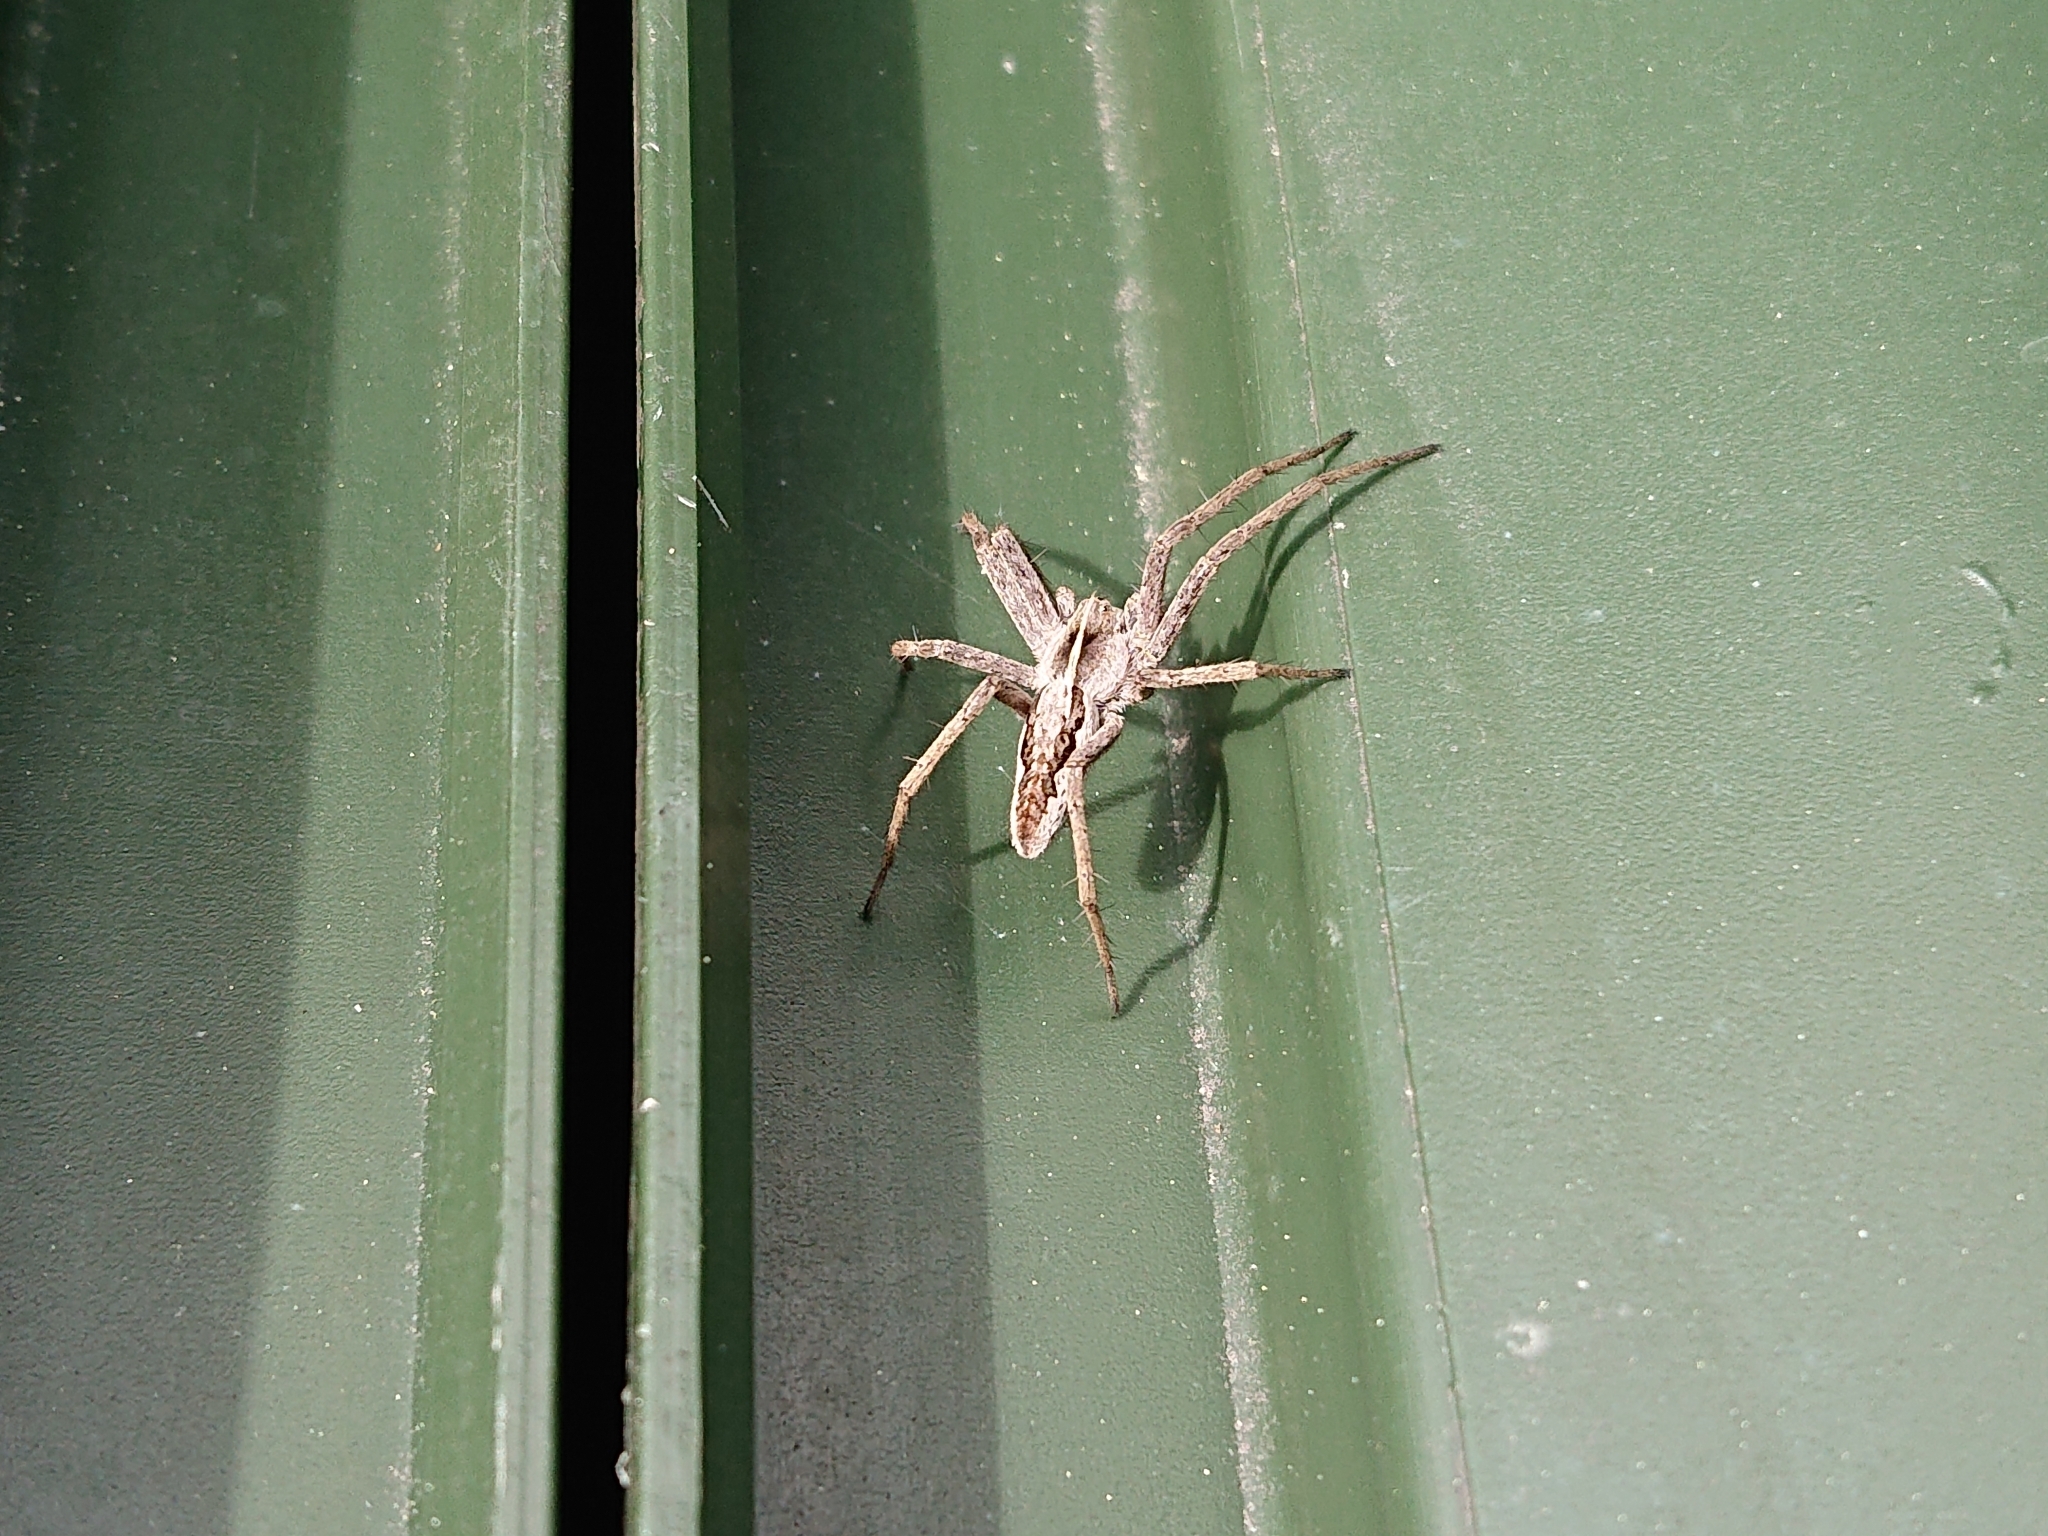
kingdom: Animalia
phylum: Arthropoda
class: Arachnida
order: Araneae
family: Pisauridae
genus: Pisaura
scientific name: Pisaura mirabilis
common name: Tent spider
